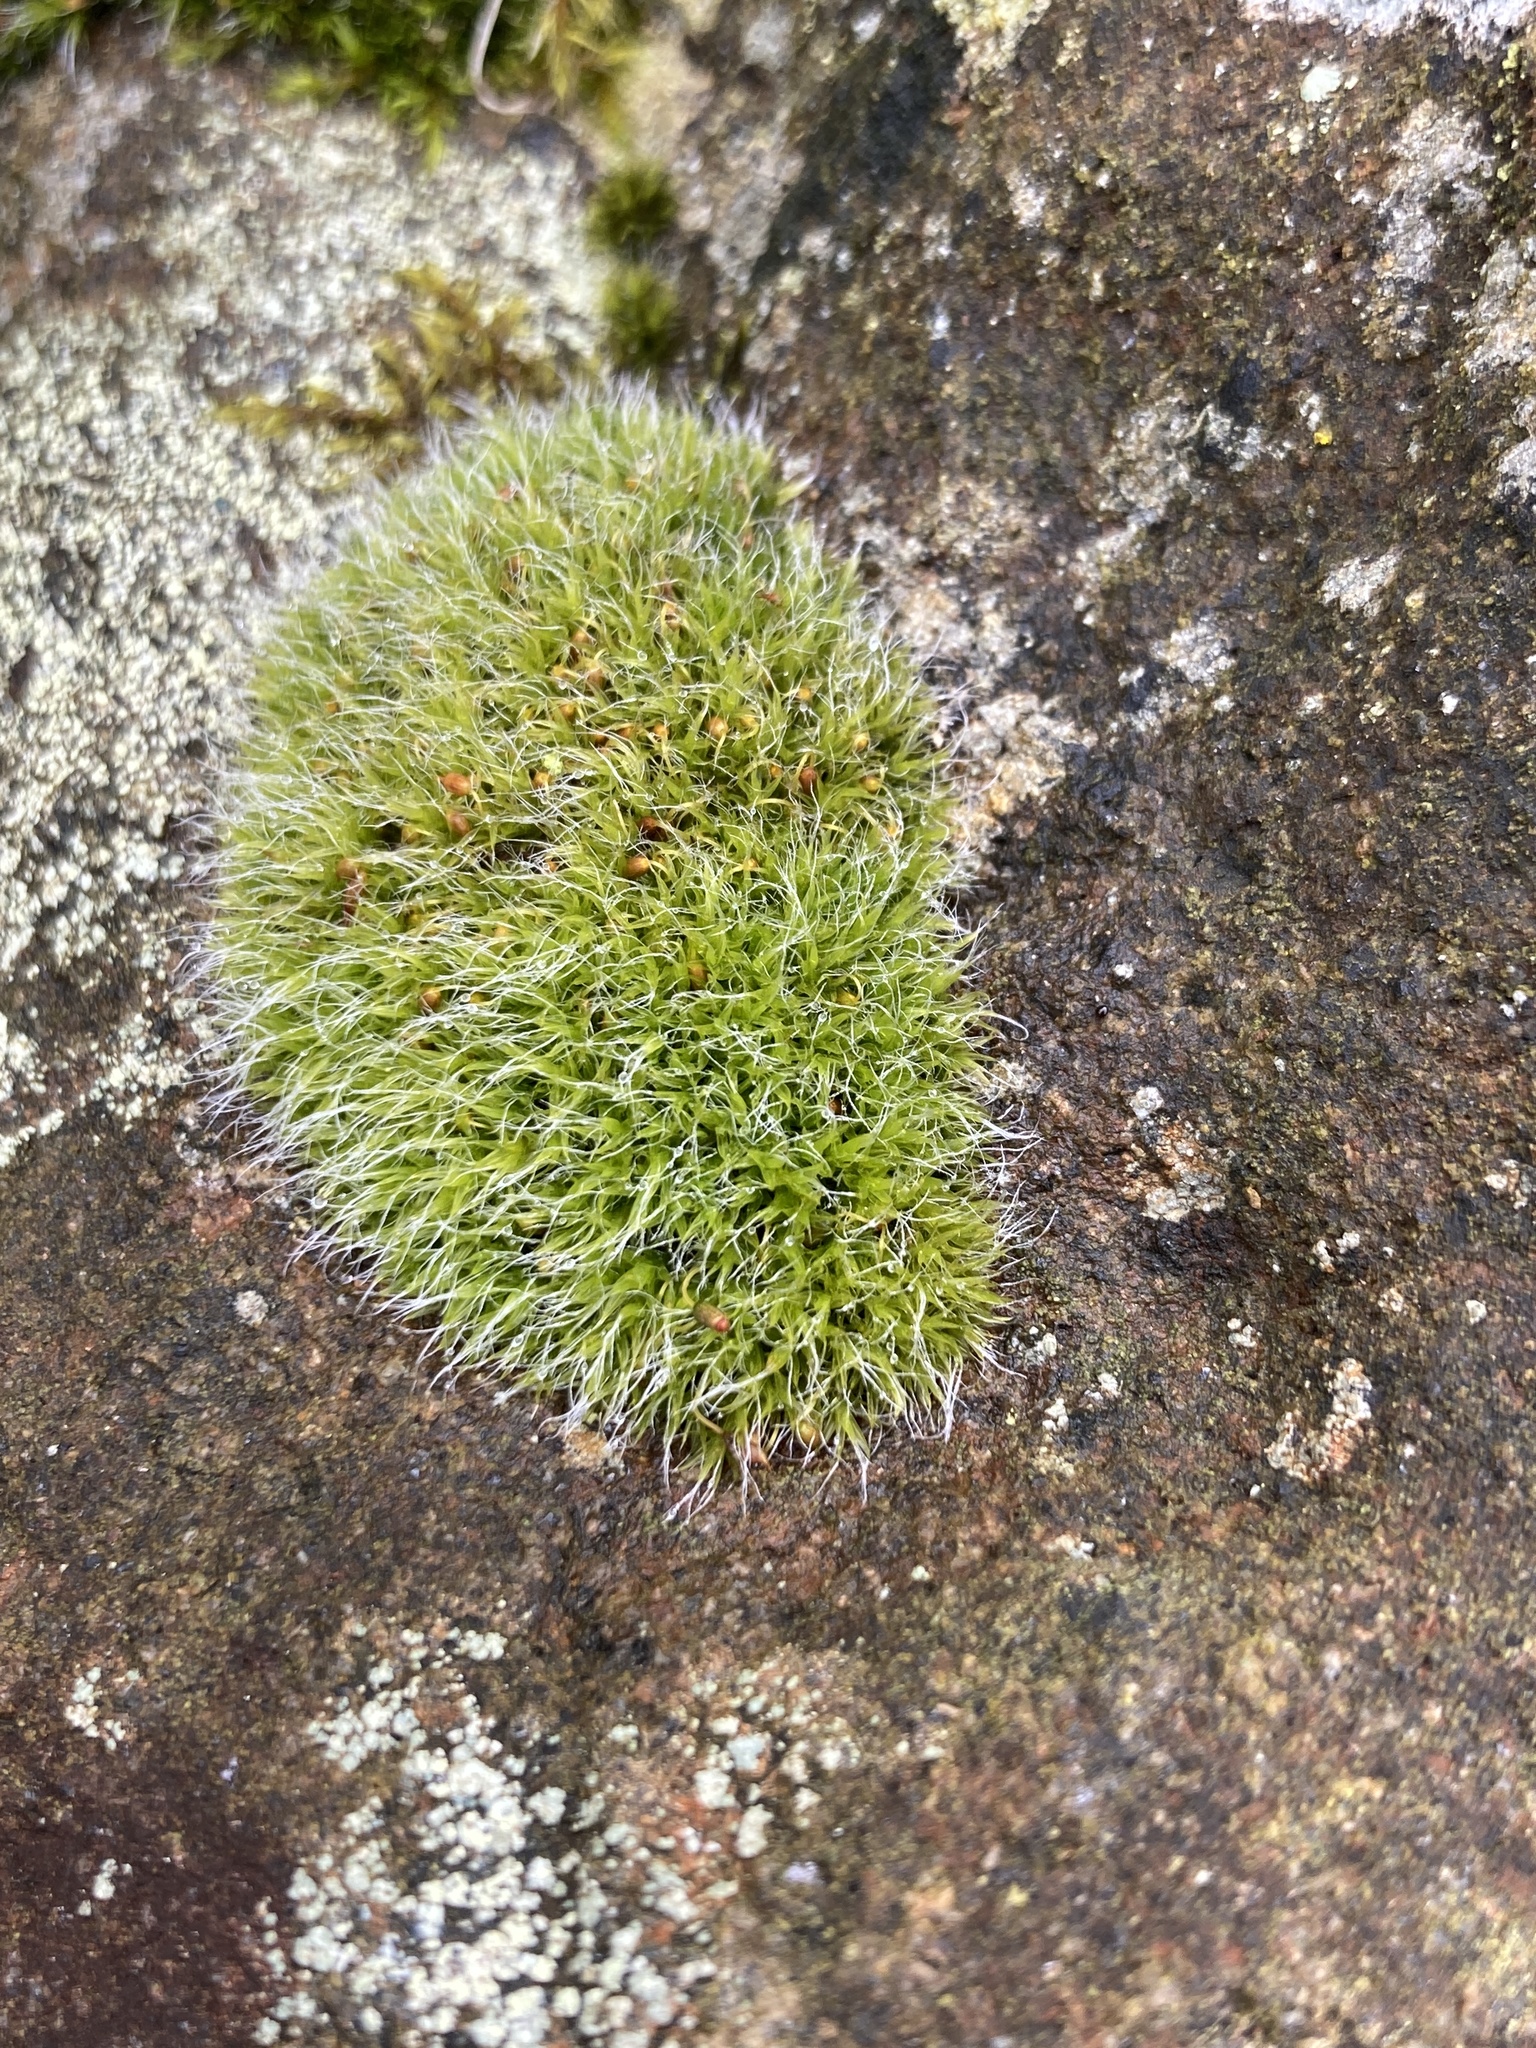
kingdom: Plantae
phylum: Bryophyta
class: Bryopsida
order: Grimmiales
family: Grimmiaceae
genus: Grimmia
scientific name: Grimmia pulvinata
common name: Grey-cushioned grimmia
